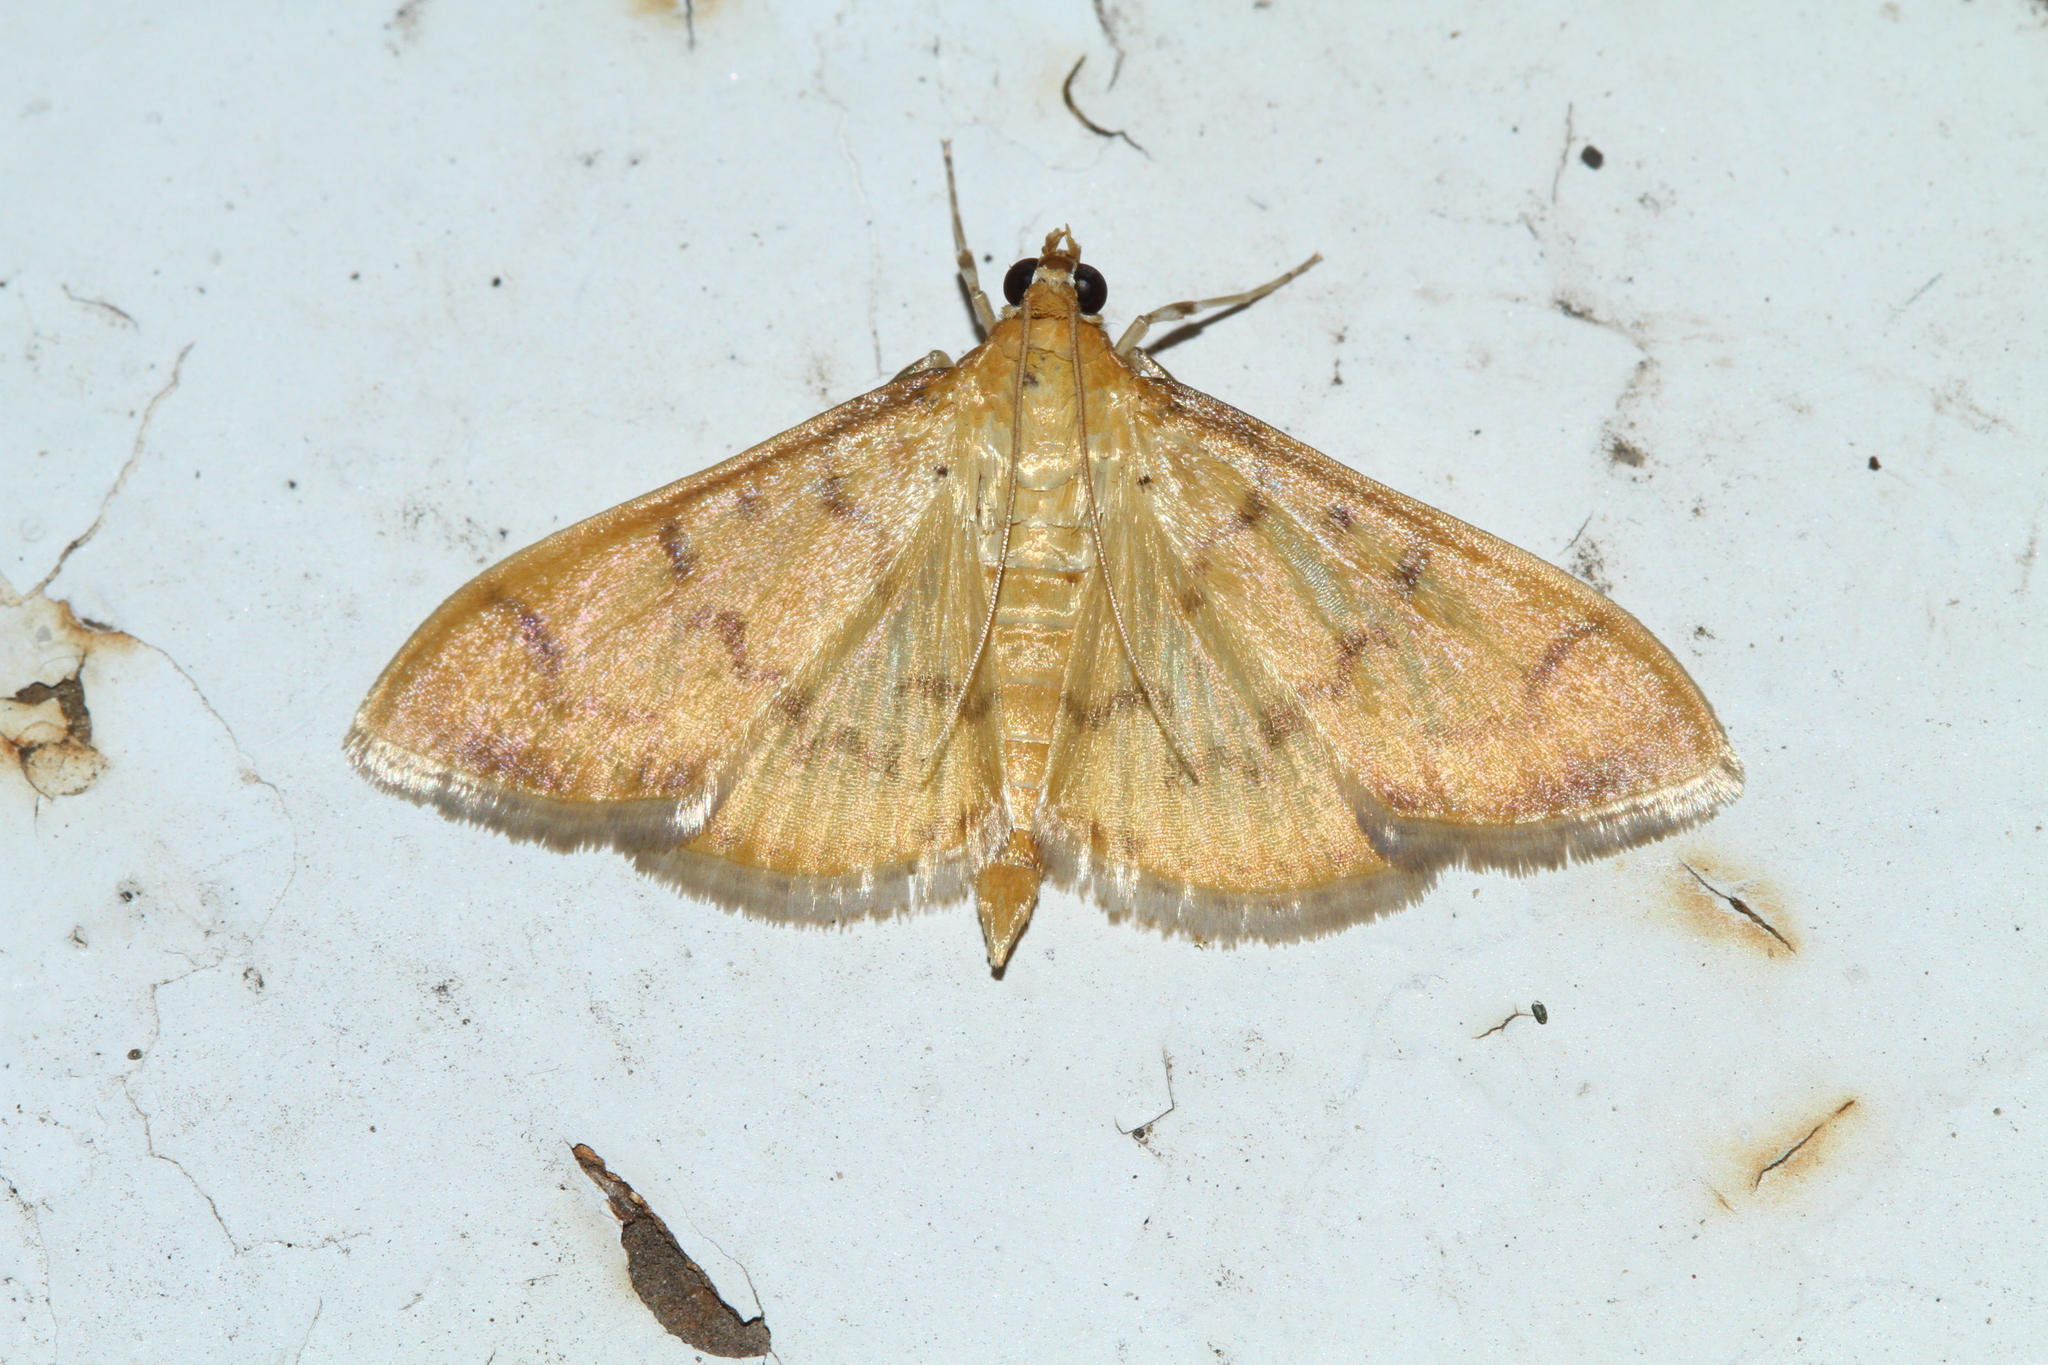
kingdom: Animalia
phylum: Arthropoda
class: Insecta
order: Lepidoptera
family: Crambidae
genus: Pleuroptya
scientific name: Pleuroptya balteata
